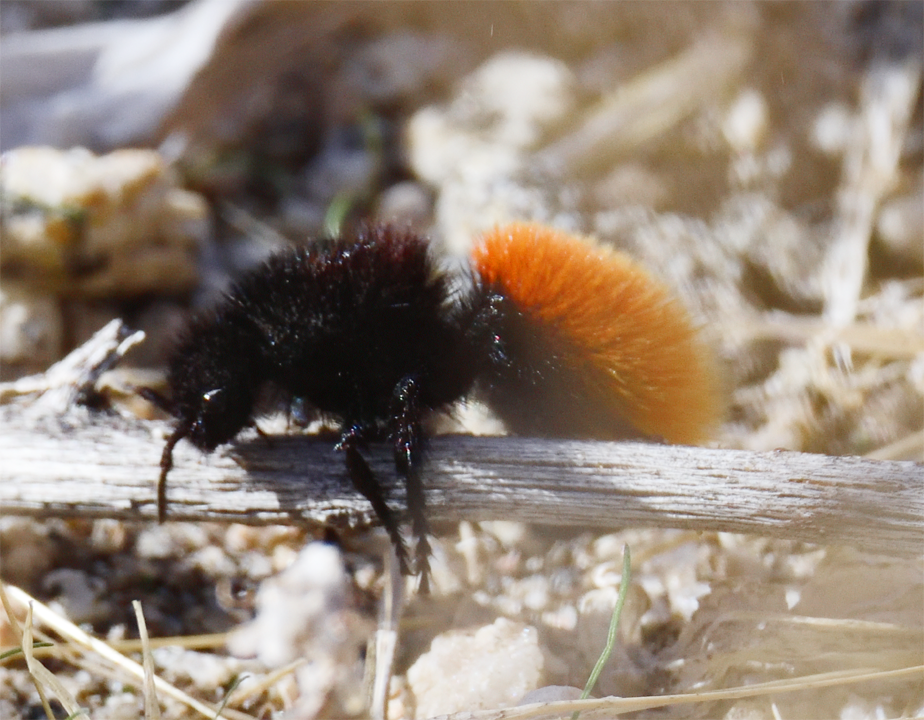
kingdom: Animalia
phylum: Arthropoda
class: Insecta
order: Hymenoptera
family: Mutillidae
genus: Dasymutilla
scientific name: Dasymutilla magnifica
